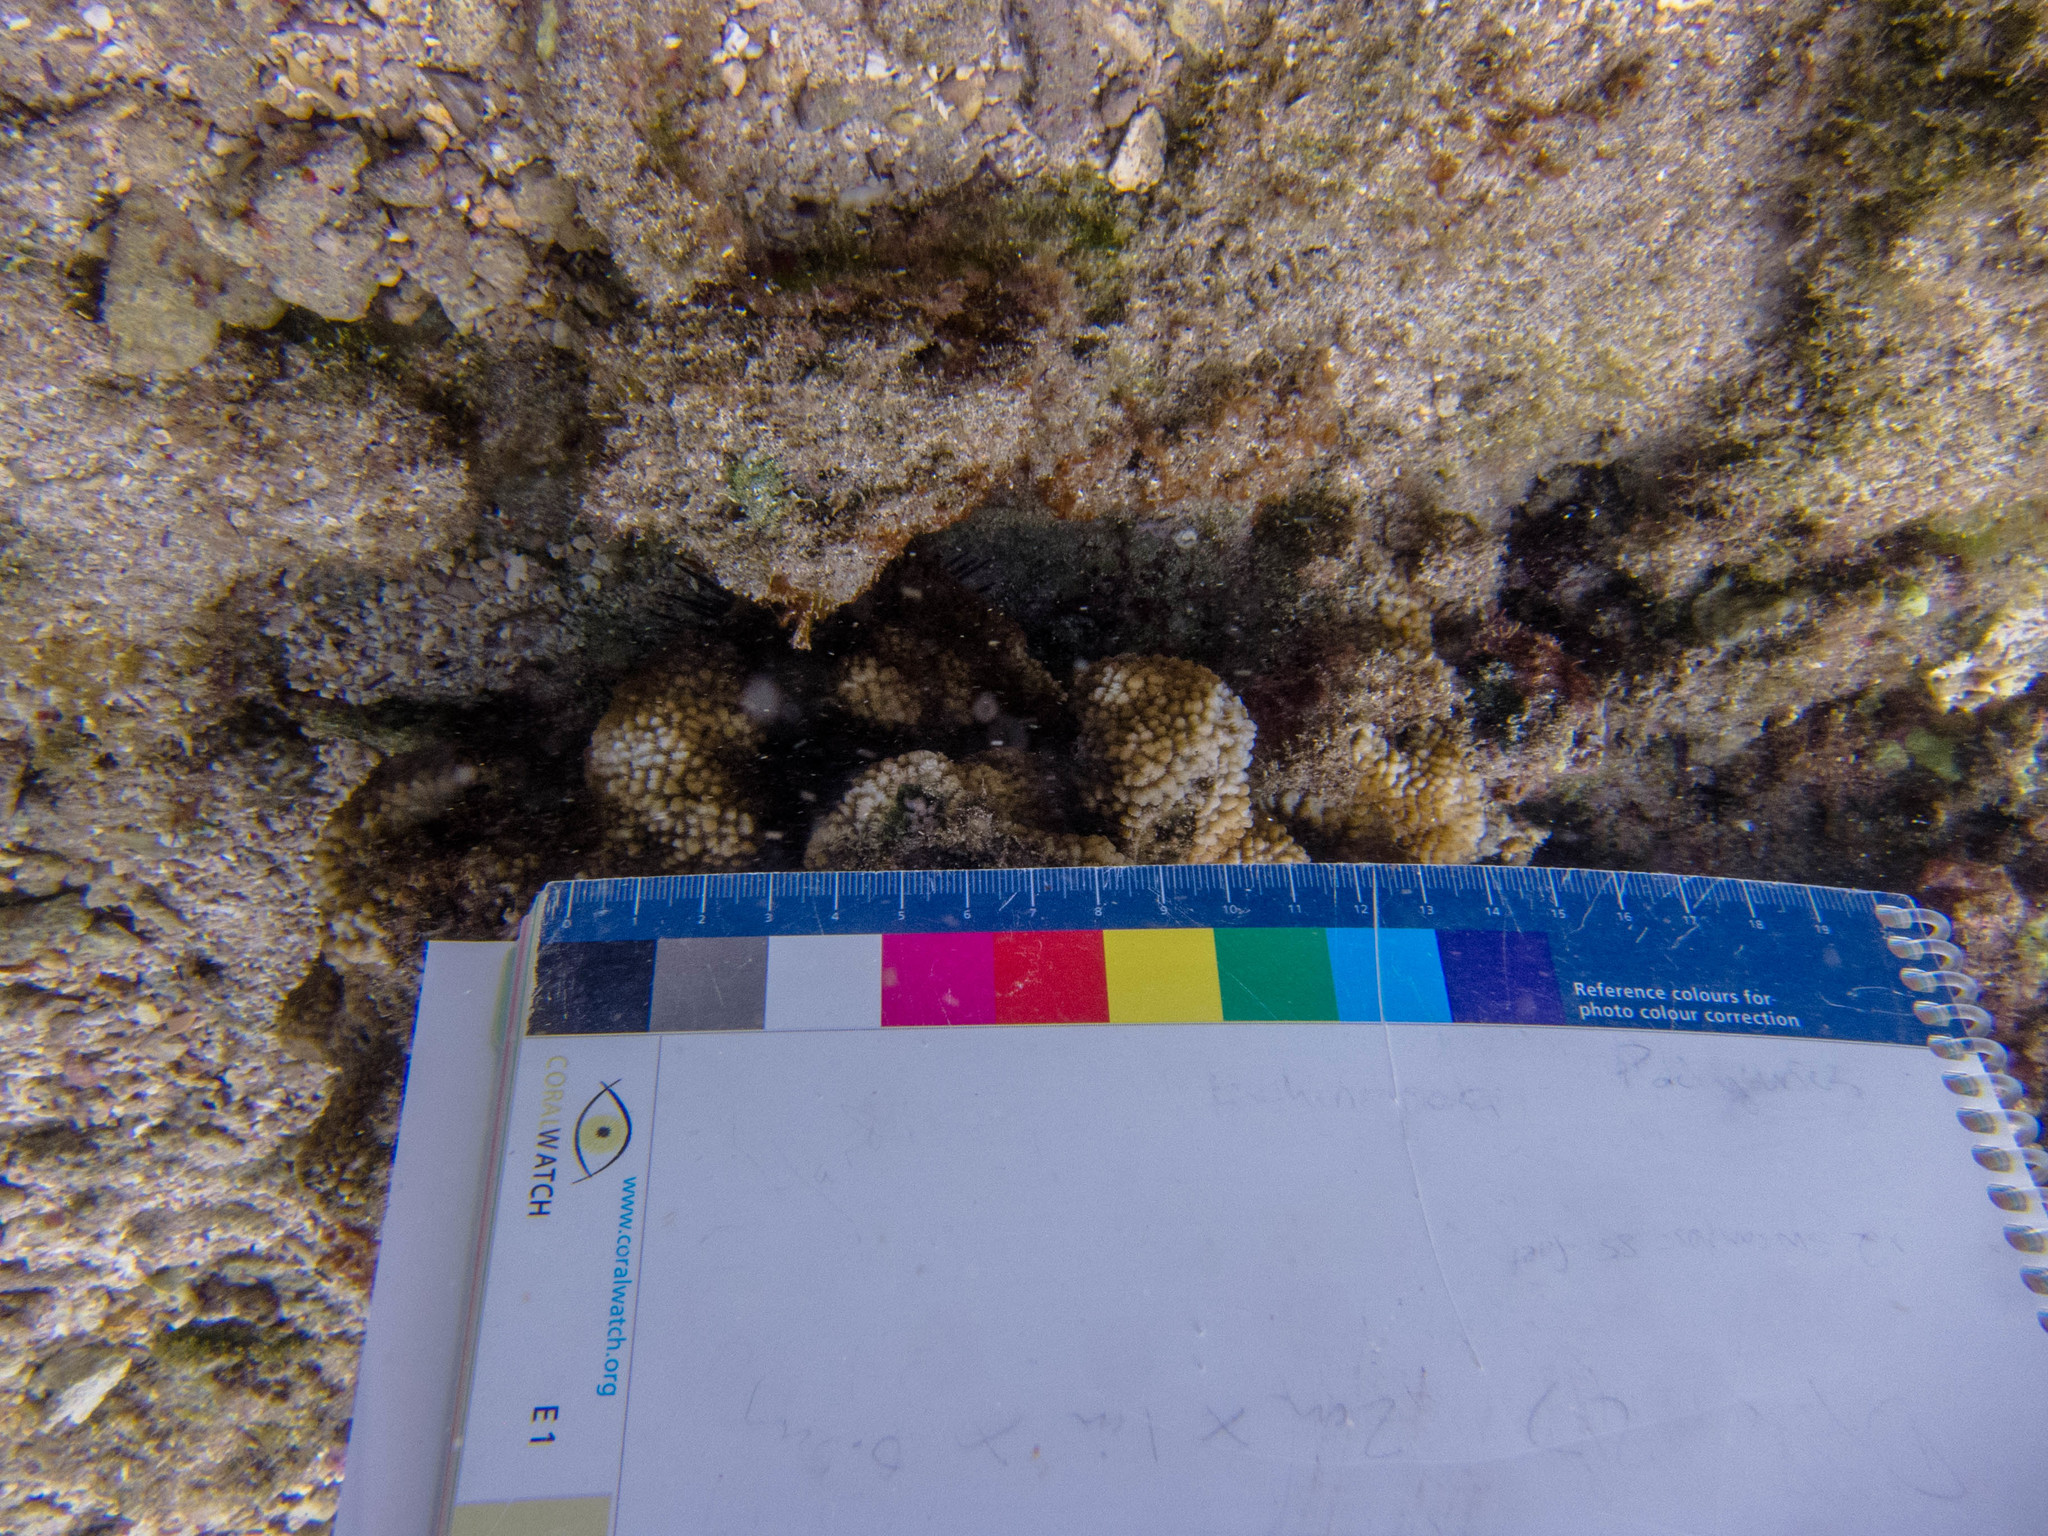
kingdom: Animalia
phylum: Cnidaria
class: Anthozoa
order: Scleractinia
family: Merulinidae
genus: Hydnophora
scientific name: Hydnophora microconos
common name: Spine coral
